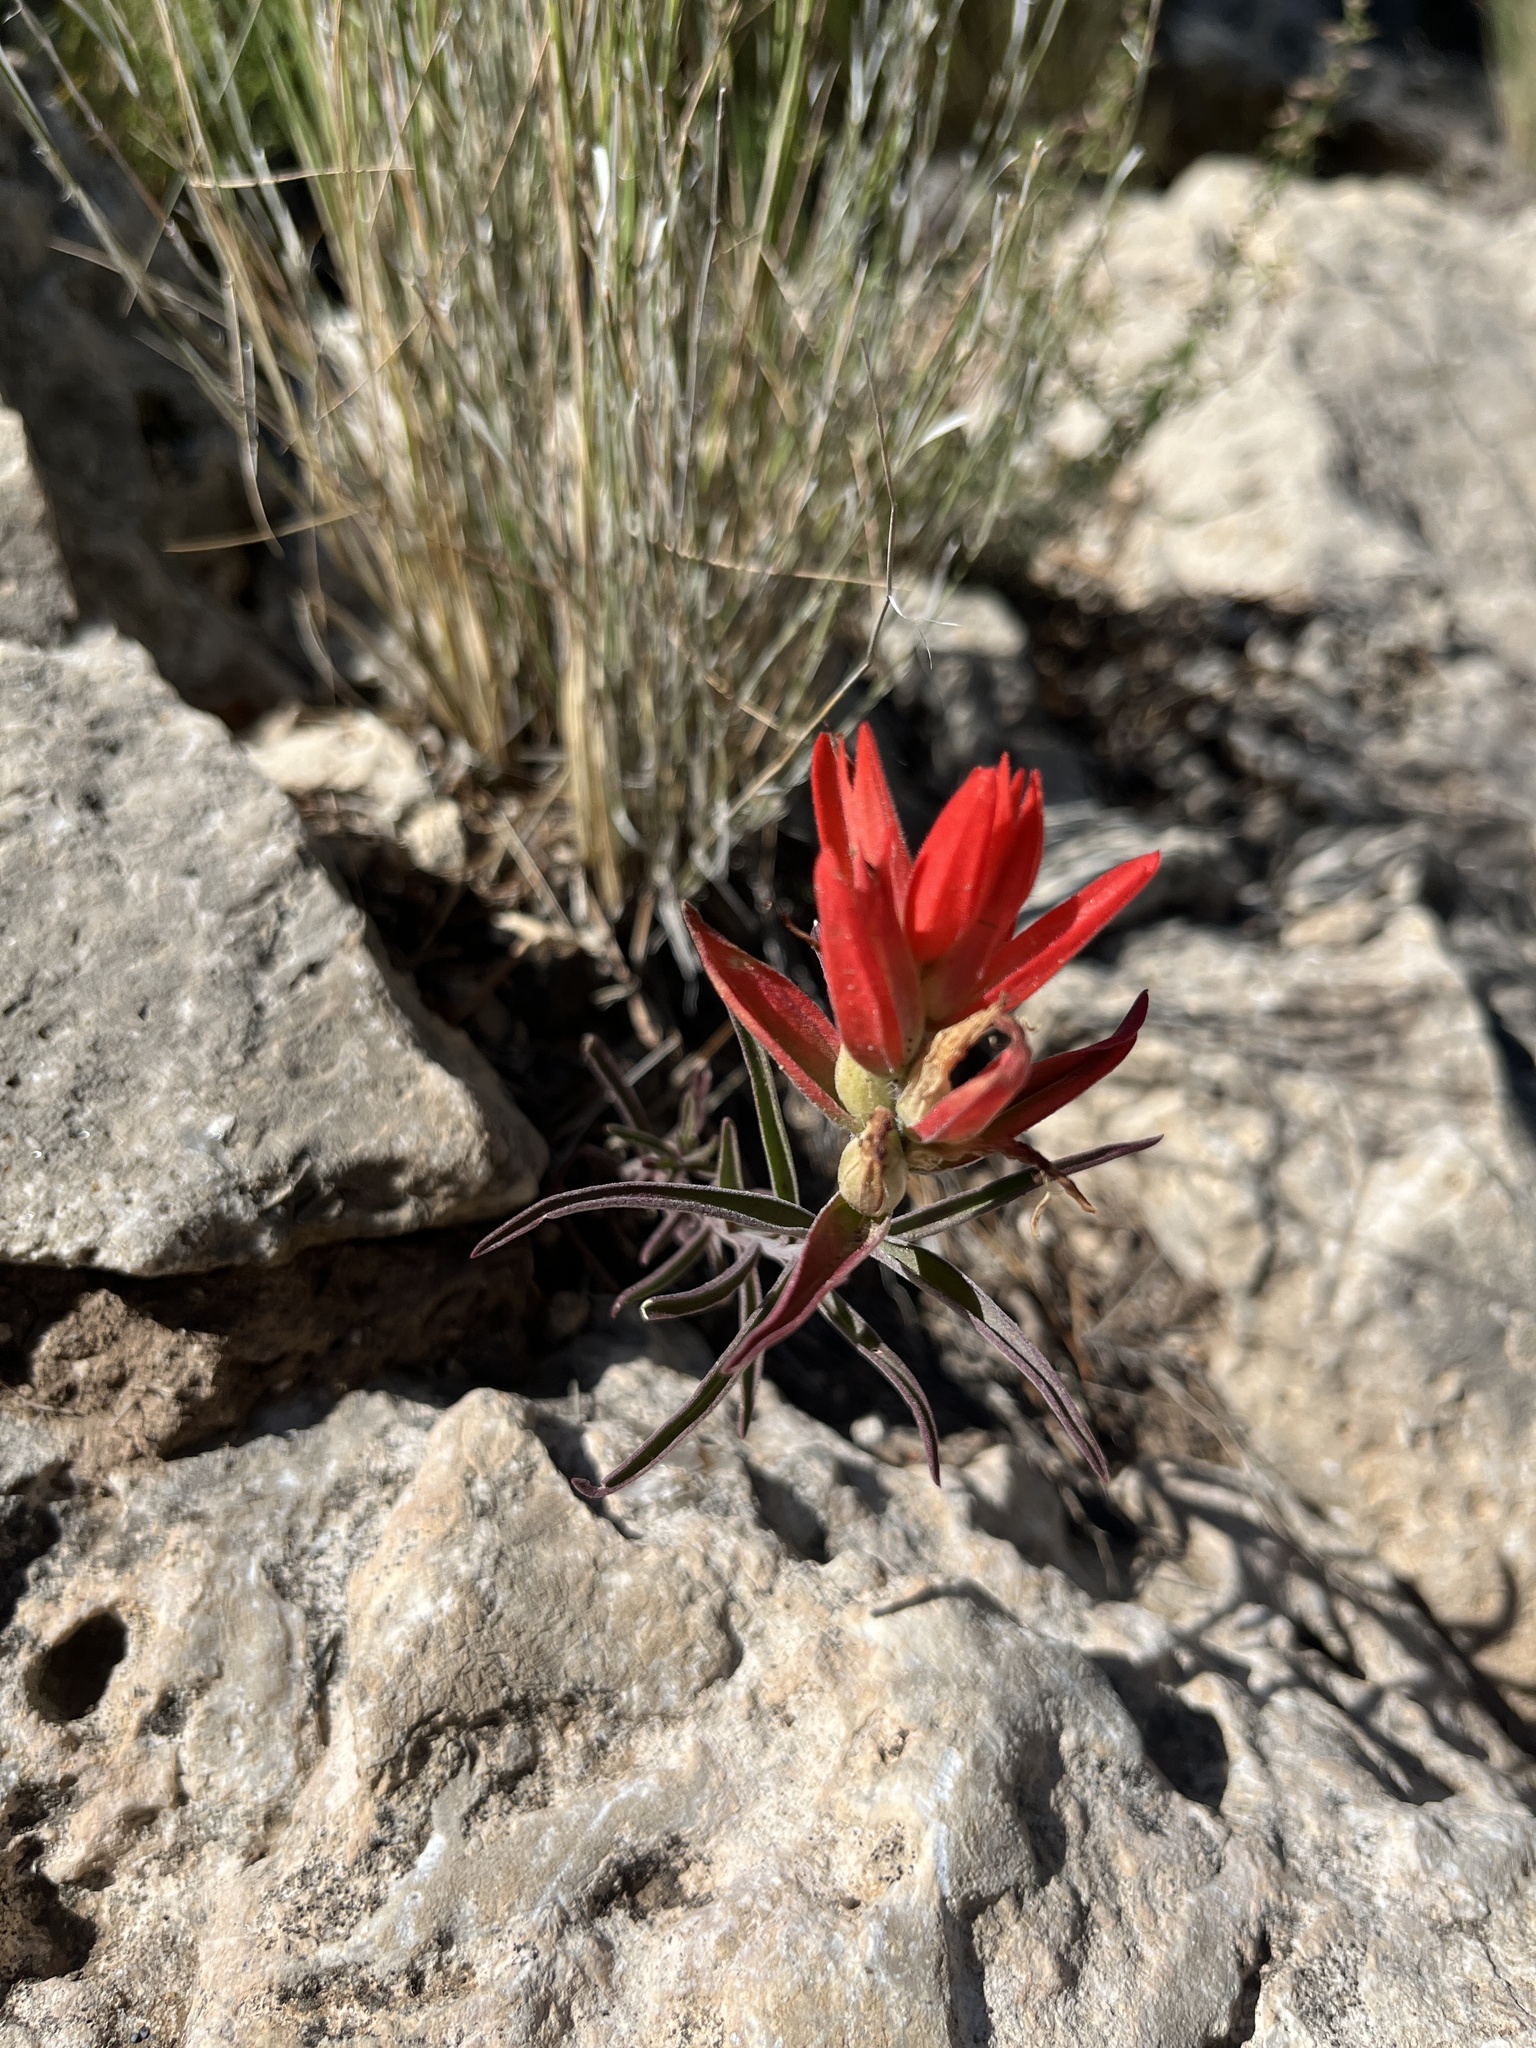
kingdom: Plantae
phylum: Tracheophyta
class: Magnoliopsida
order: Lamiales
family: Orobanchaceae
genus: Castilleja
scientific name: Castilleja integra
